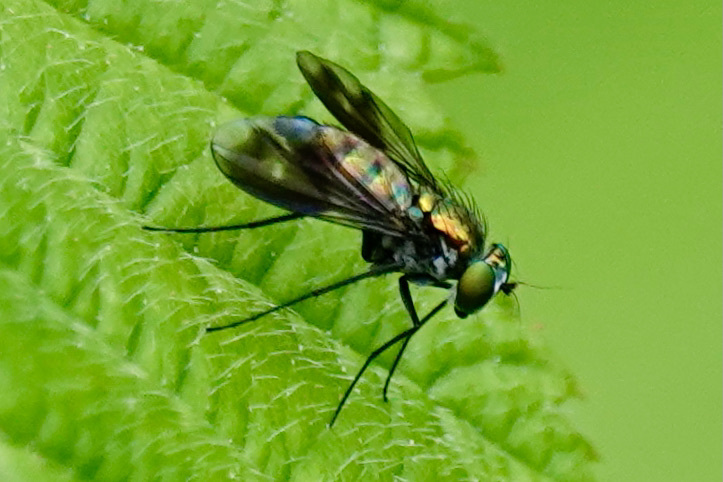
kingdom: Animalia
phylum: Arthropoda
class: Insecta
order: Diptera
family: Dolichopodidae
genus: Condylostylus
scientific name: Condylostylus patibulatus
